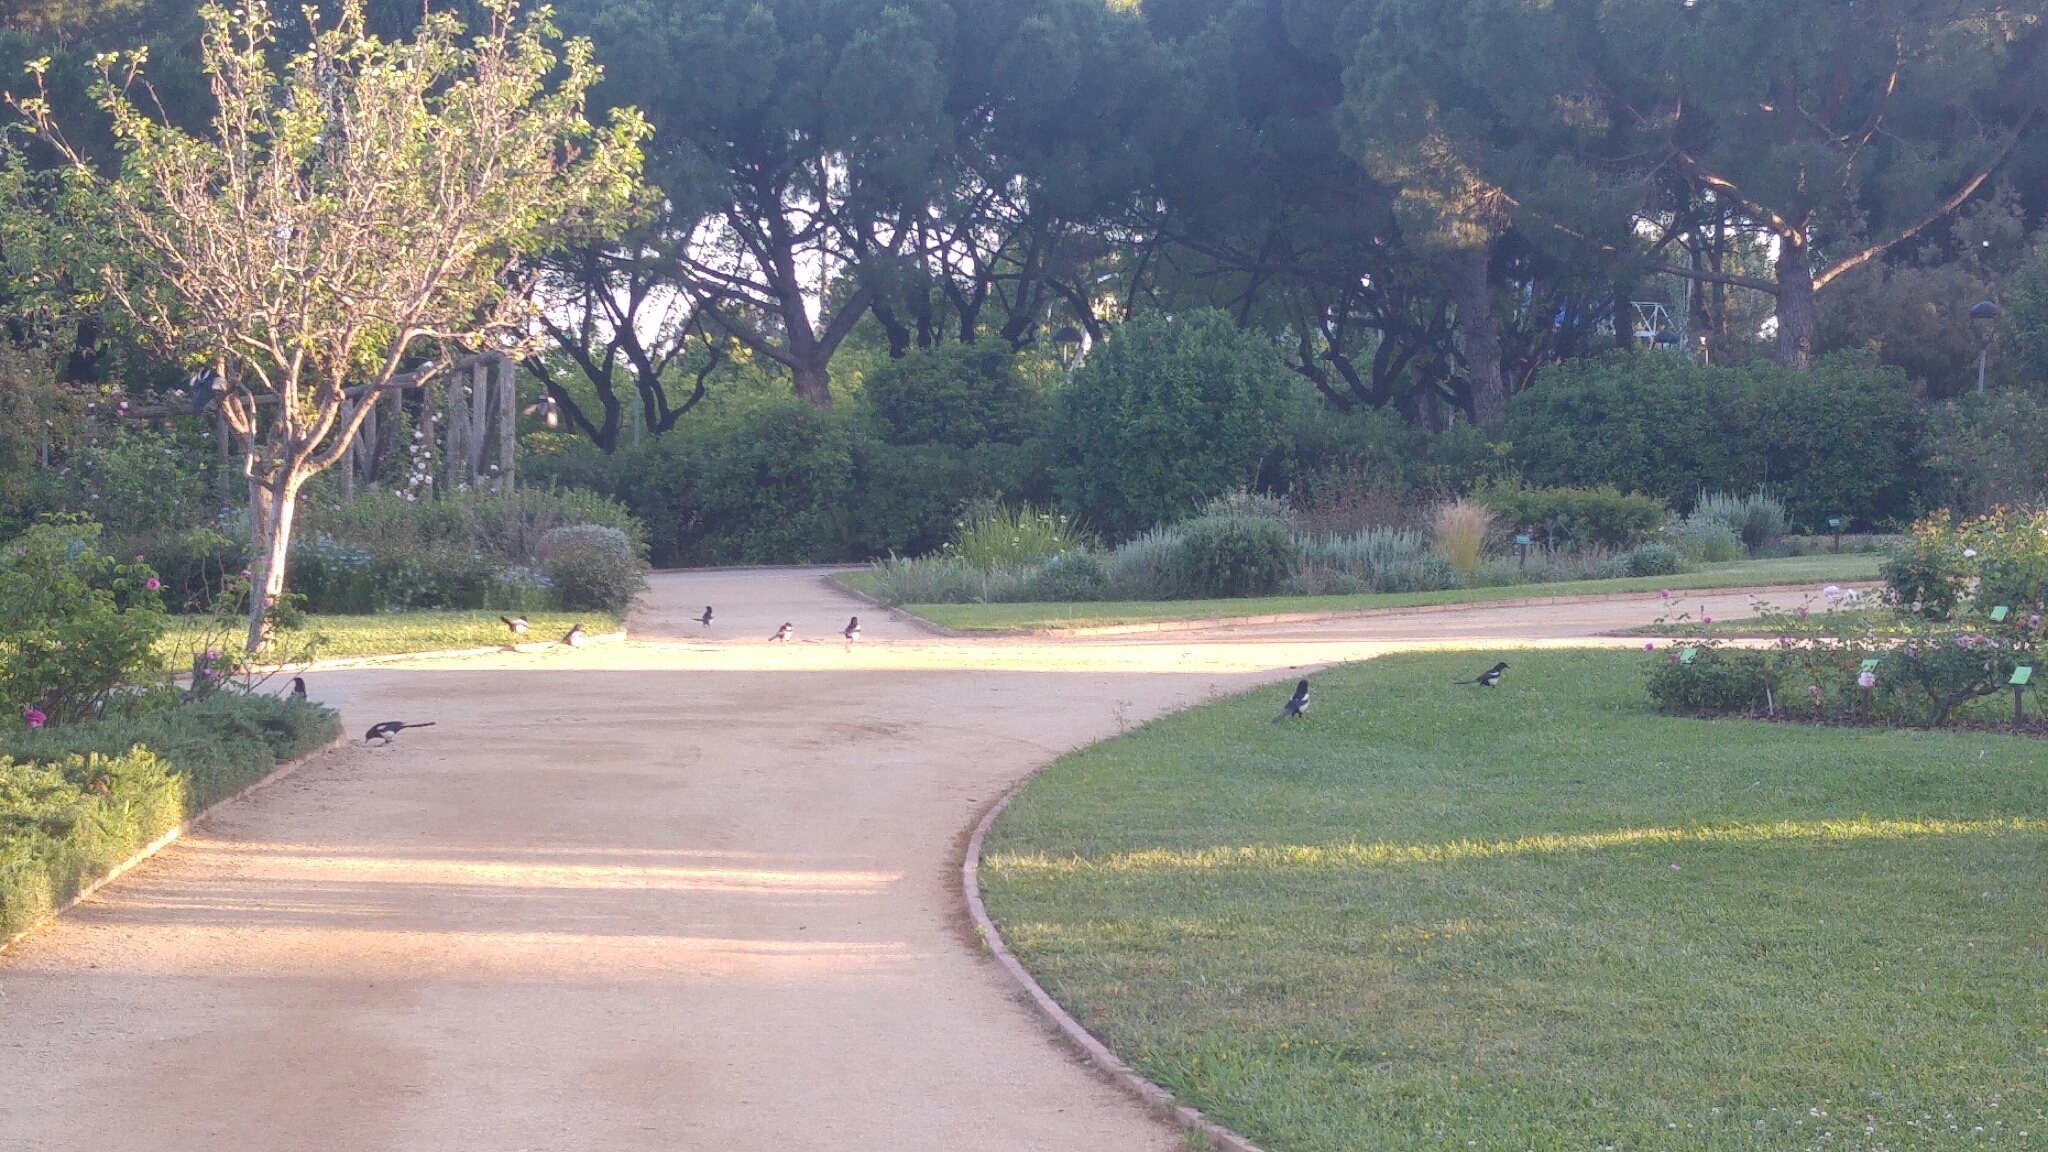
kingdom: Animalia
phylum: Chordata
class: Aves
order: Passeriformes
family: Corvidae
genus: Pica
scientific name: Pica pica
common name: Eurasian magpie
